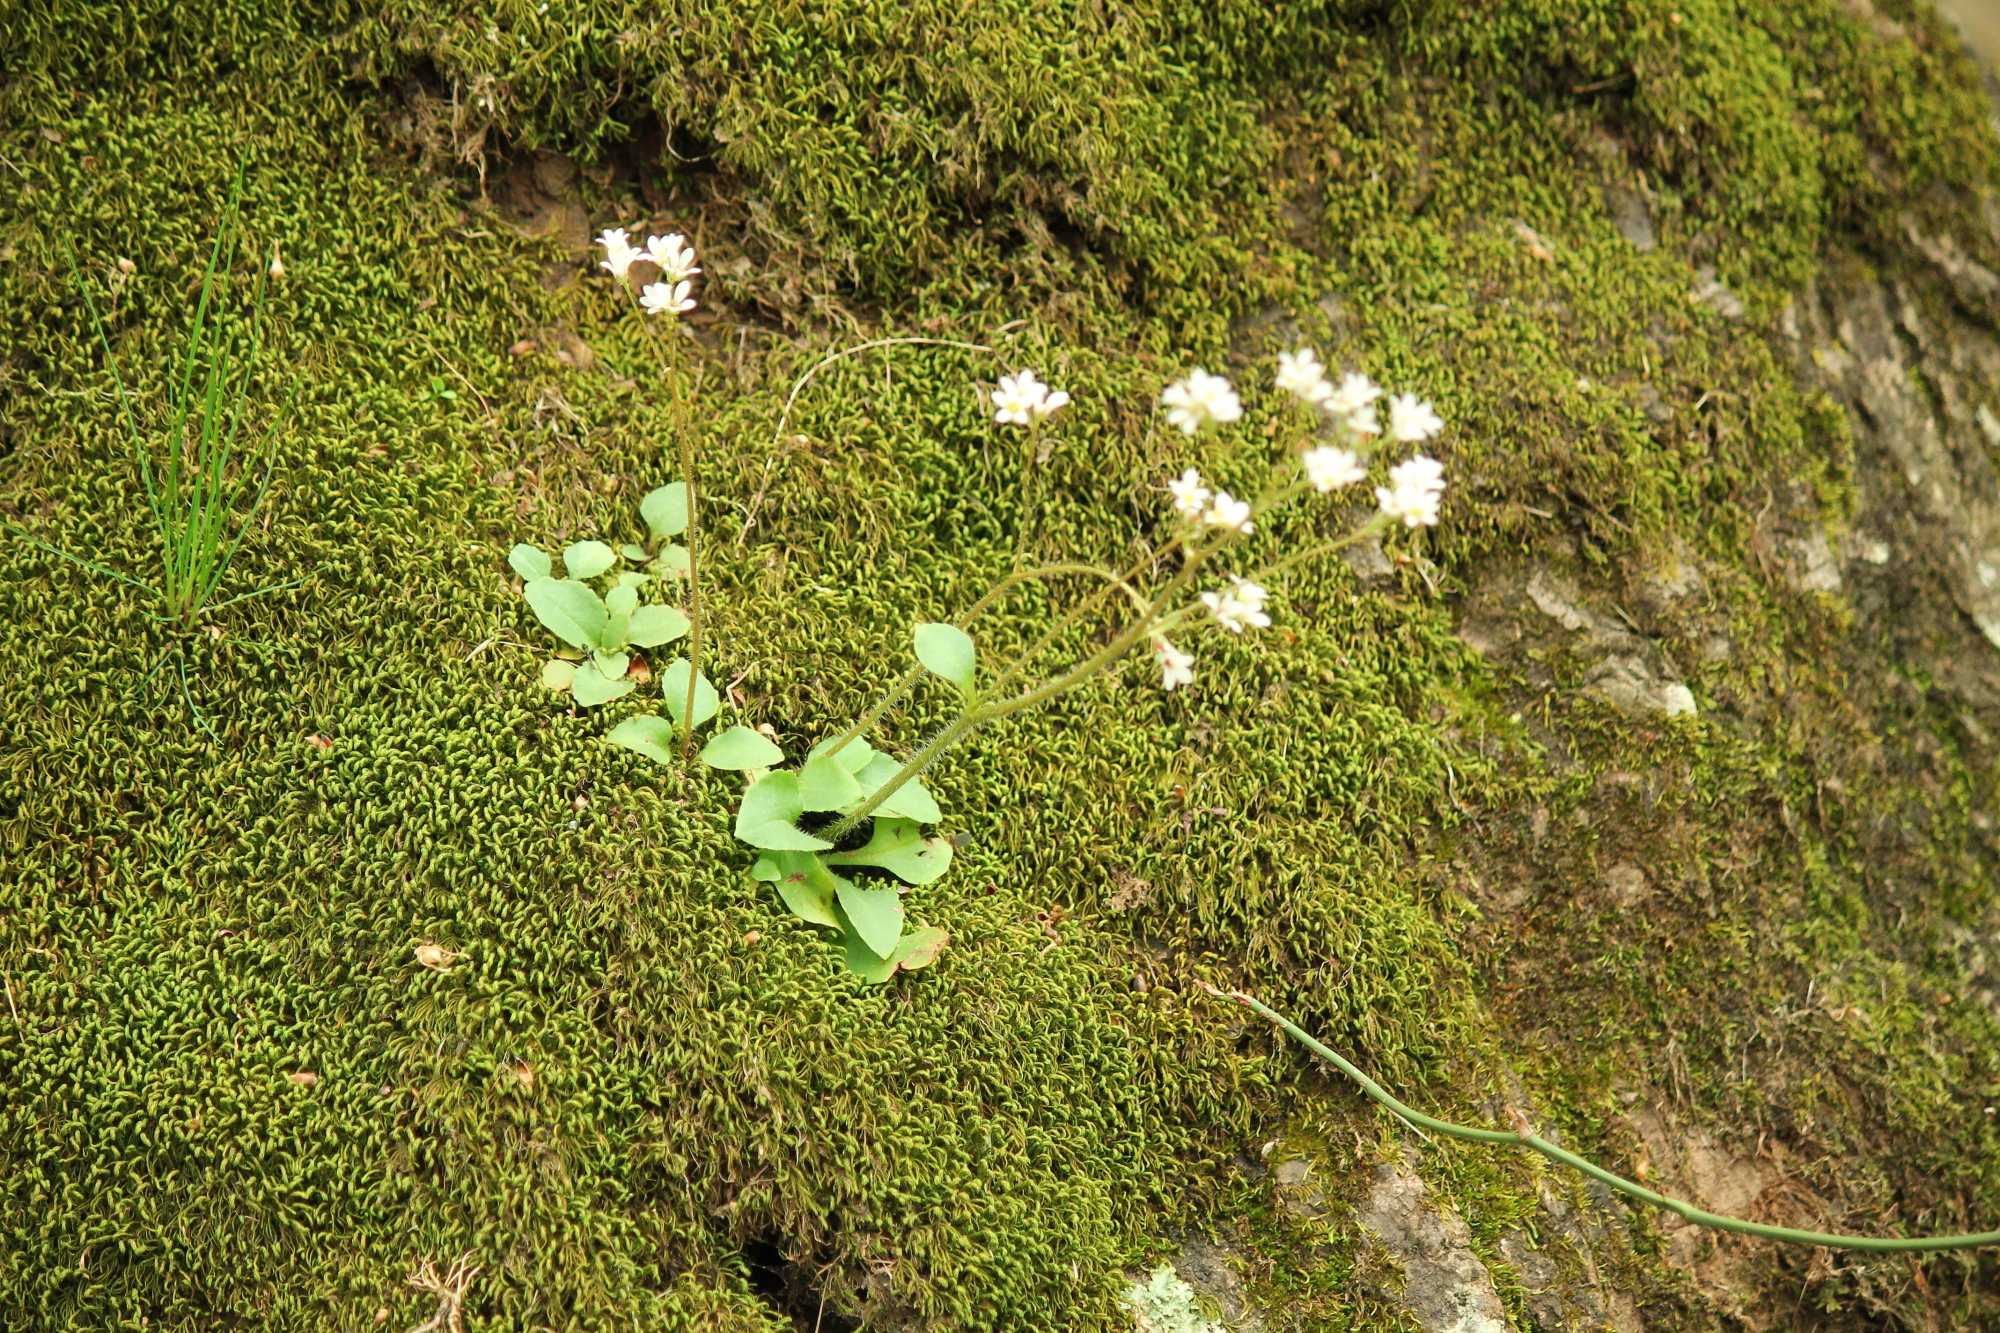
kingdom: Plantae
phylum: Tracheophyta
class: Magnoliopsida
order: Saxifragales
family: Saxifragaceae
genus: Micranthes
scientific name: Micranthes palmeri
